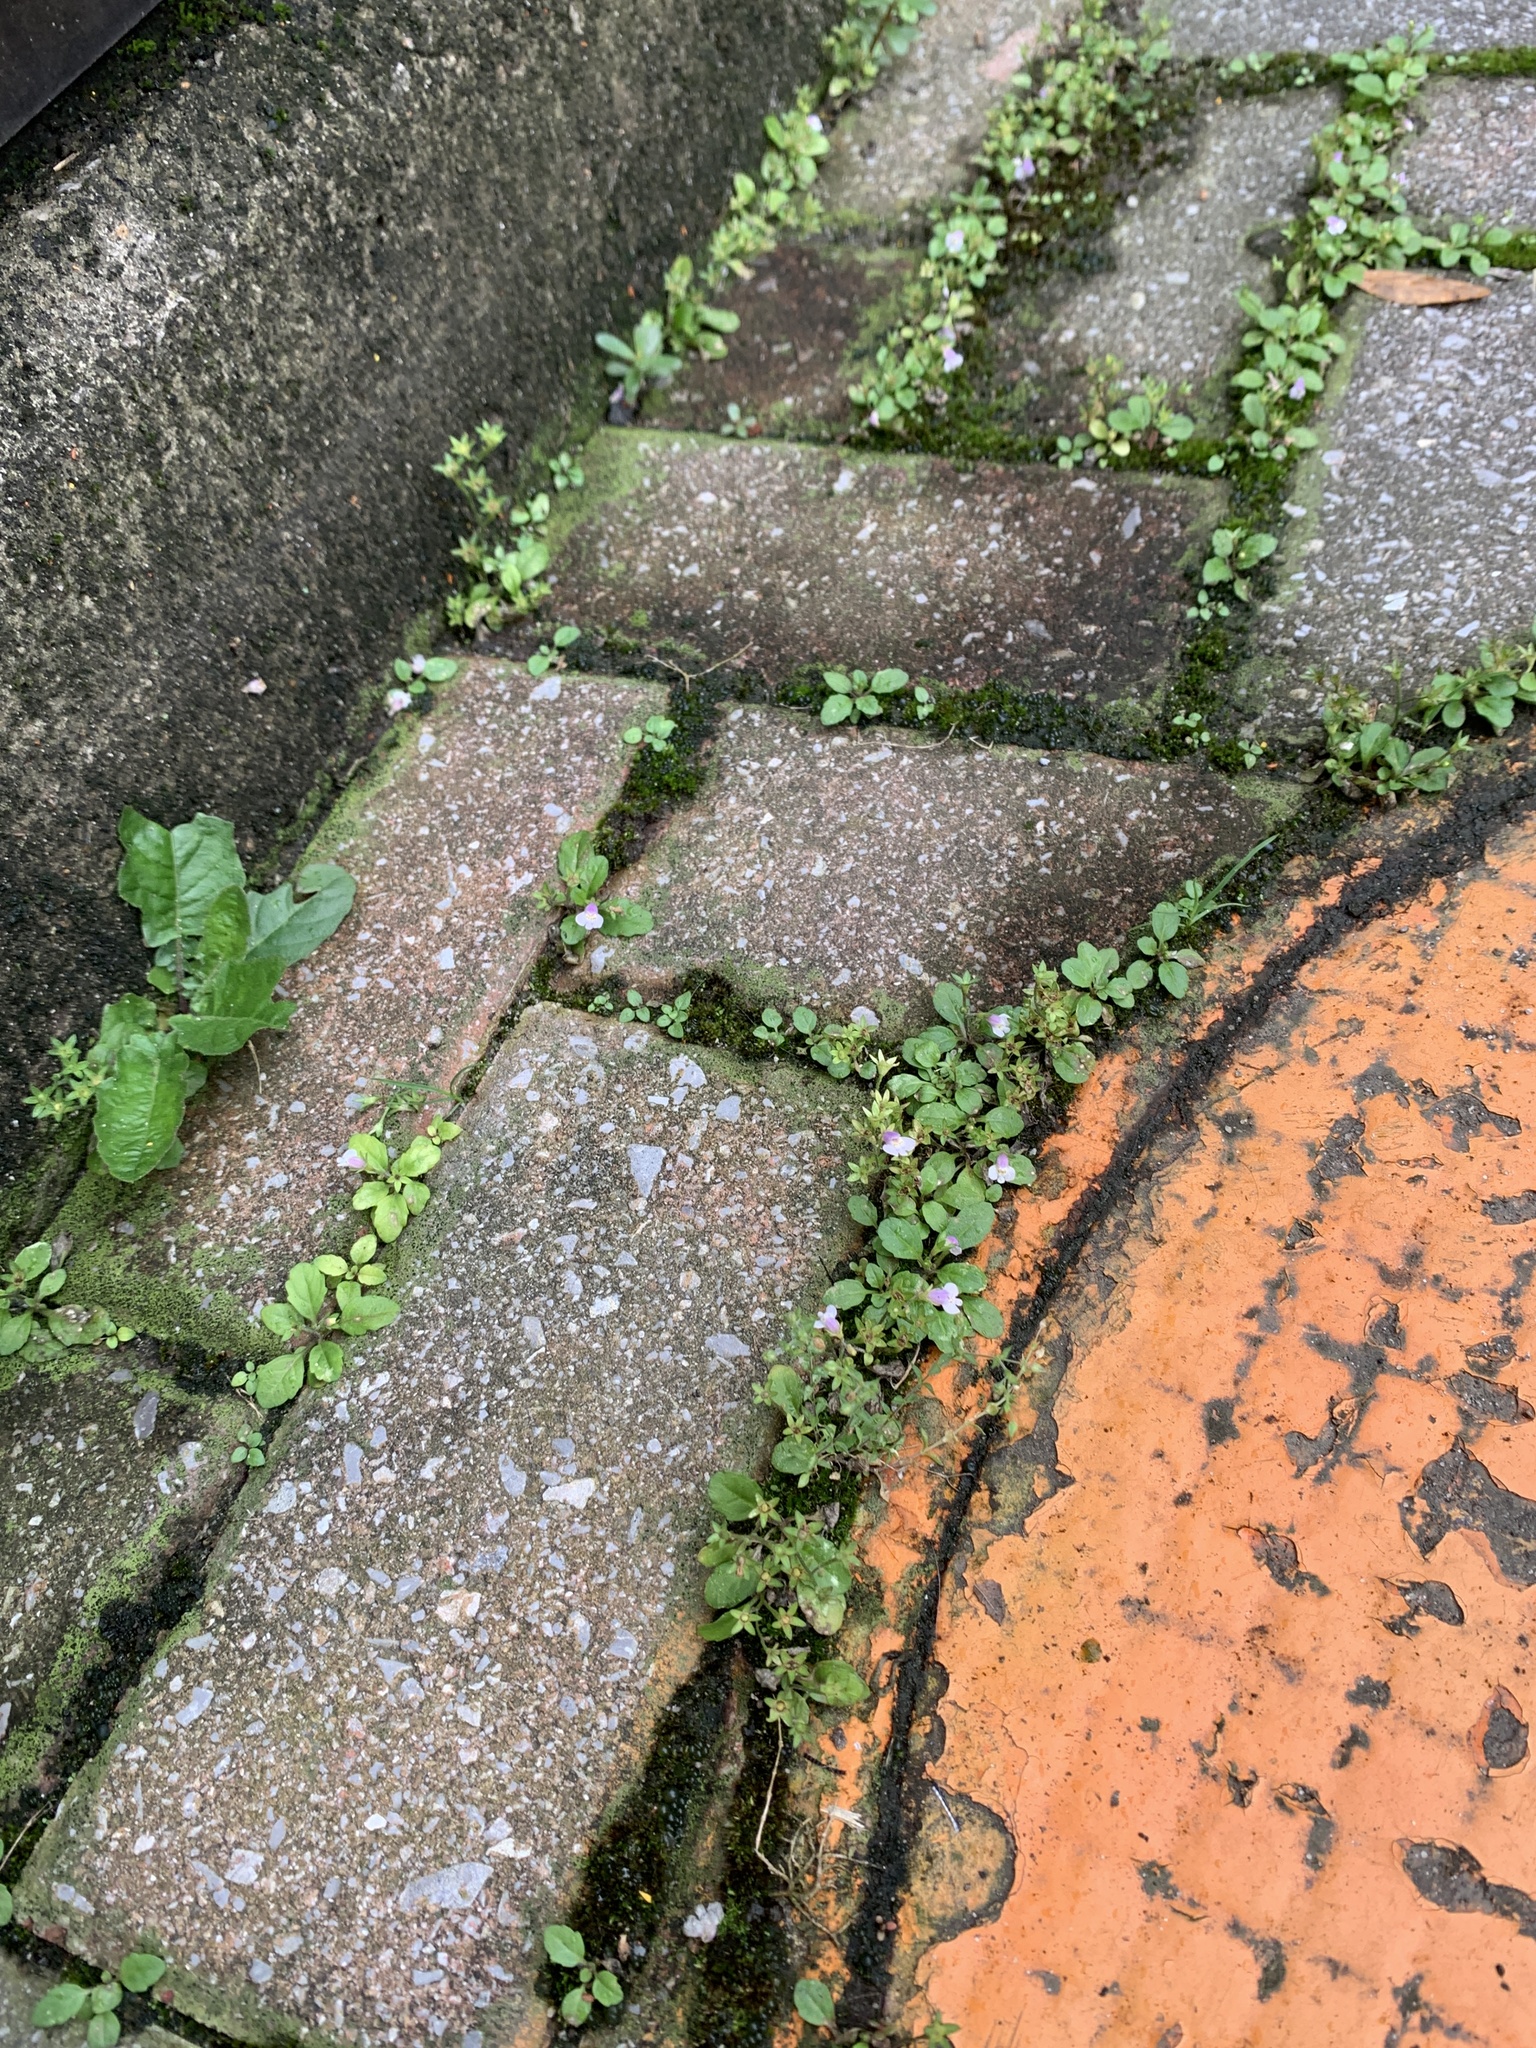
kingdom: Plantae
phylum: Tracheophyta
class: Magnoliopsida
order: Lamiales
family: Mazaceae
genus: Mazus
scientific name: Mazus pumilus
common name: Japanese mazus
